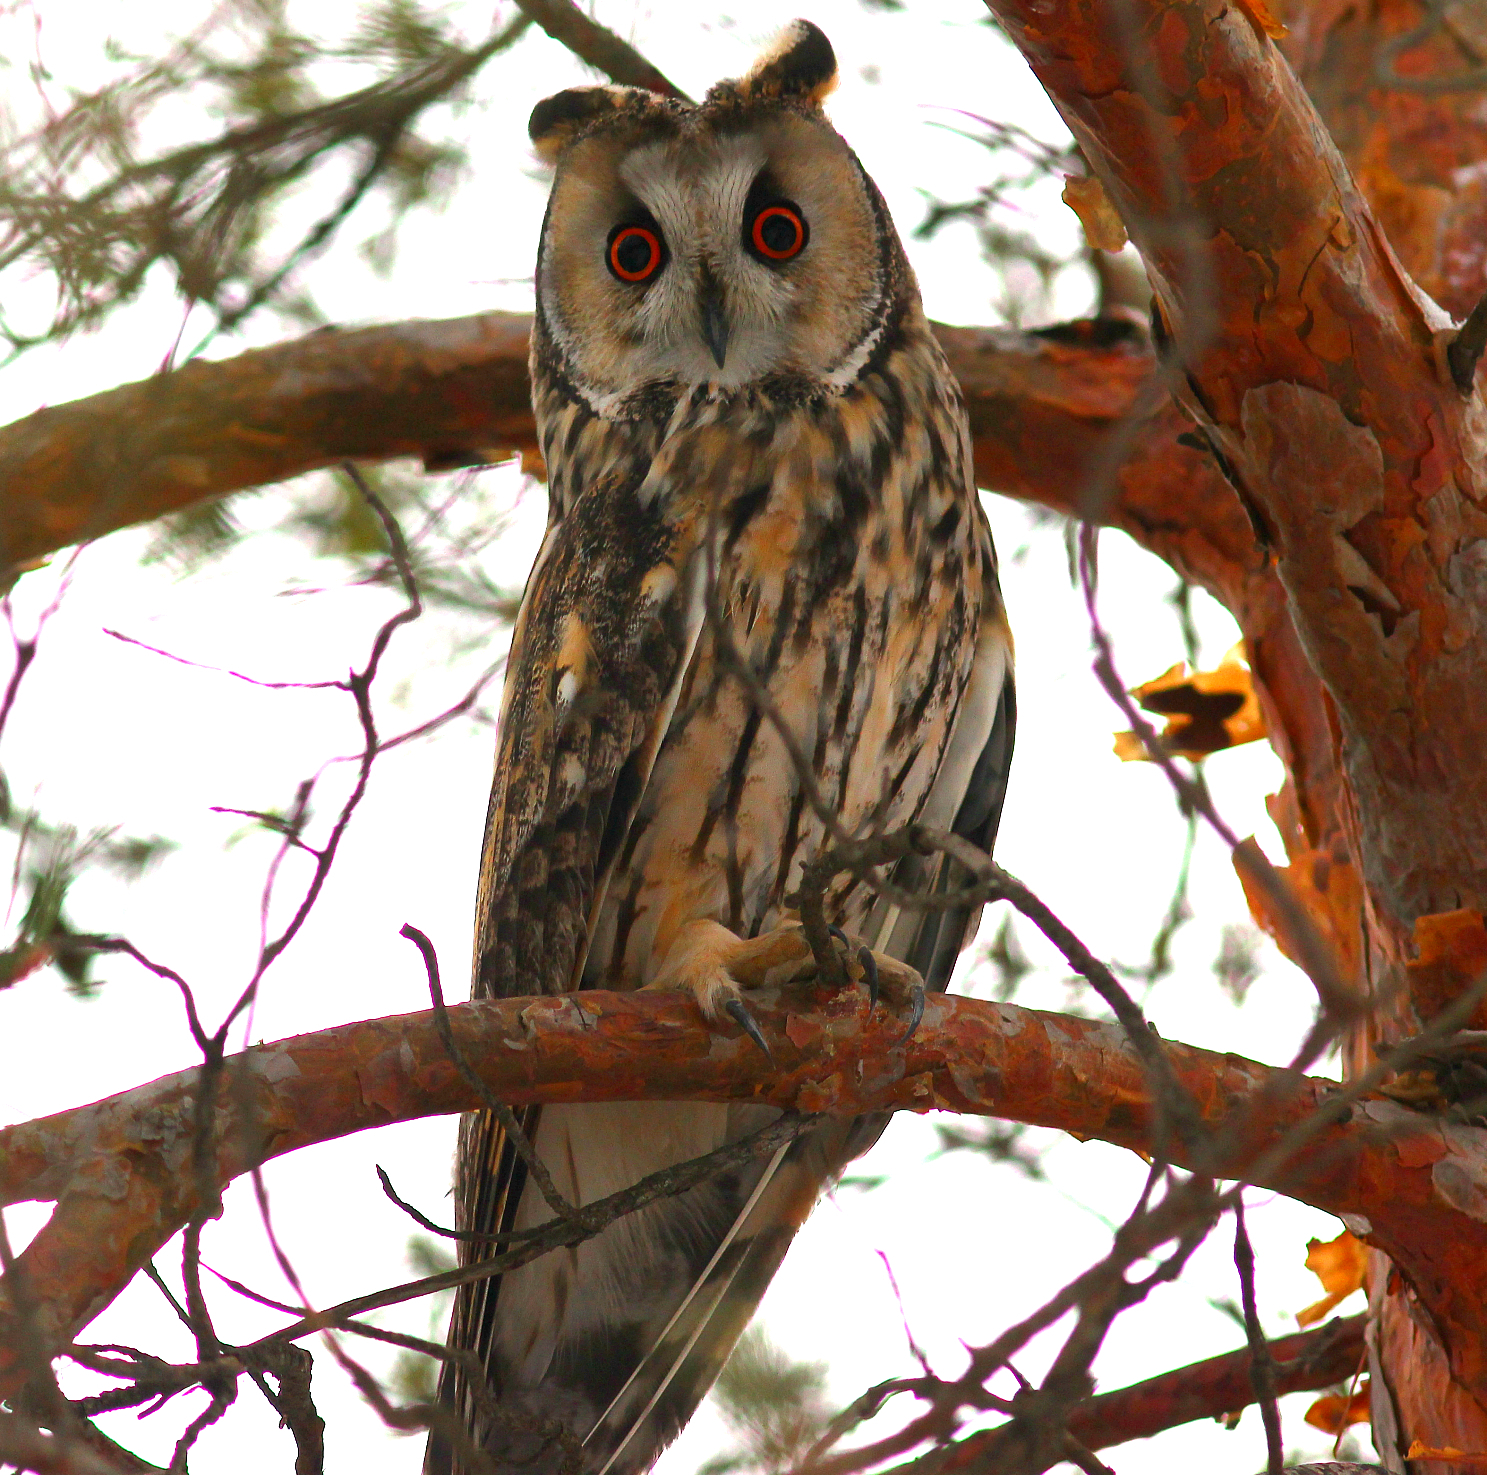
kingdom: Animalia
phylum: Chordata
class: Aves
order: Strigiformes
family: Strigidae
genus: Asio
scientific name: Asio otus
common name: Long-eared owl
